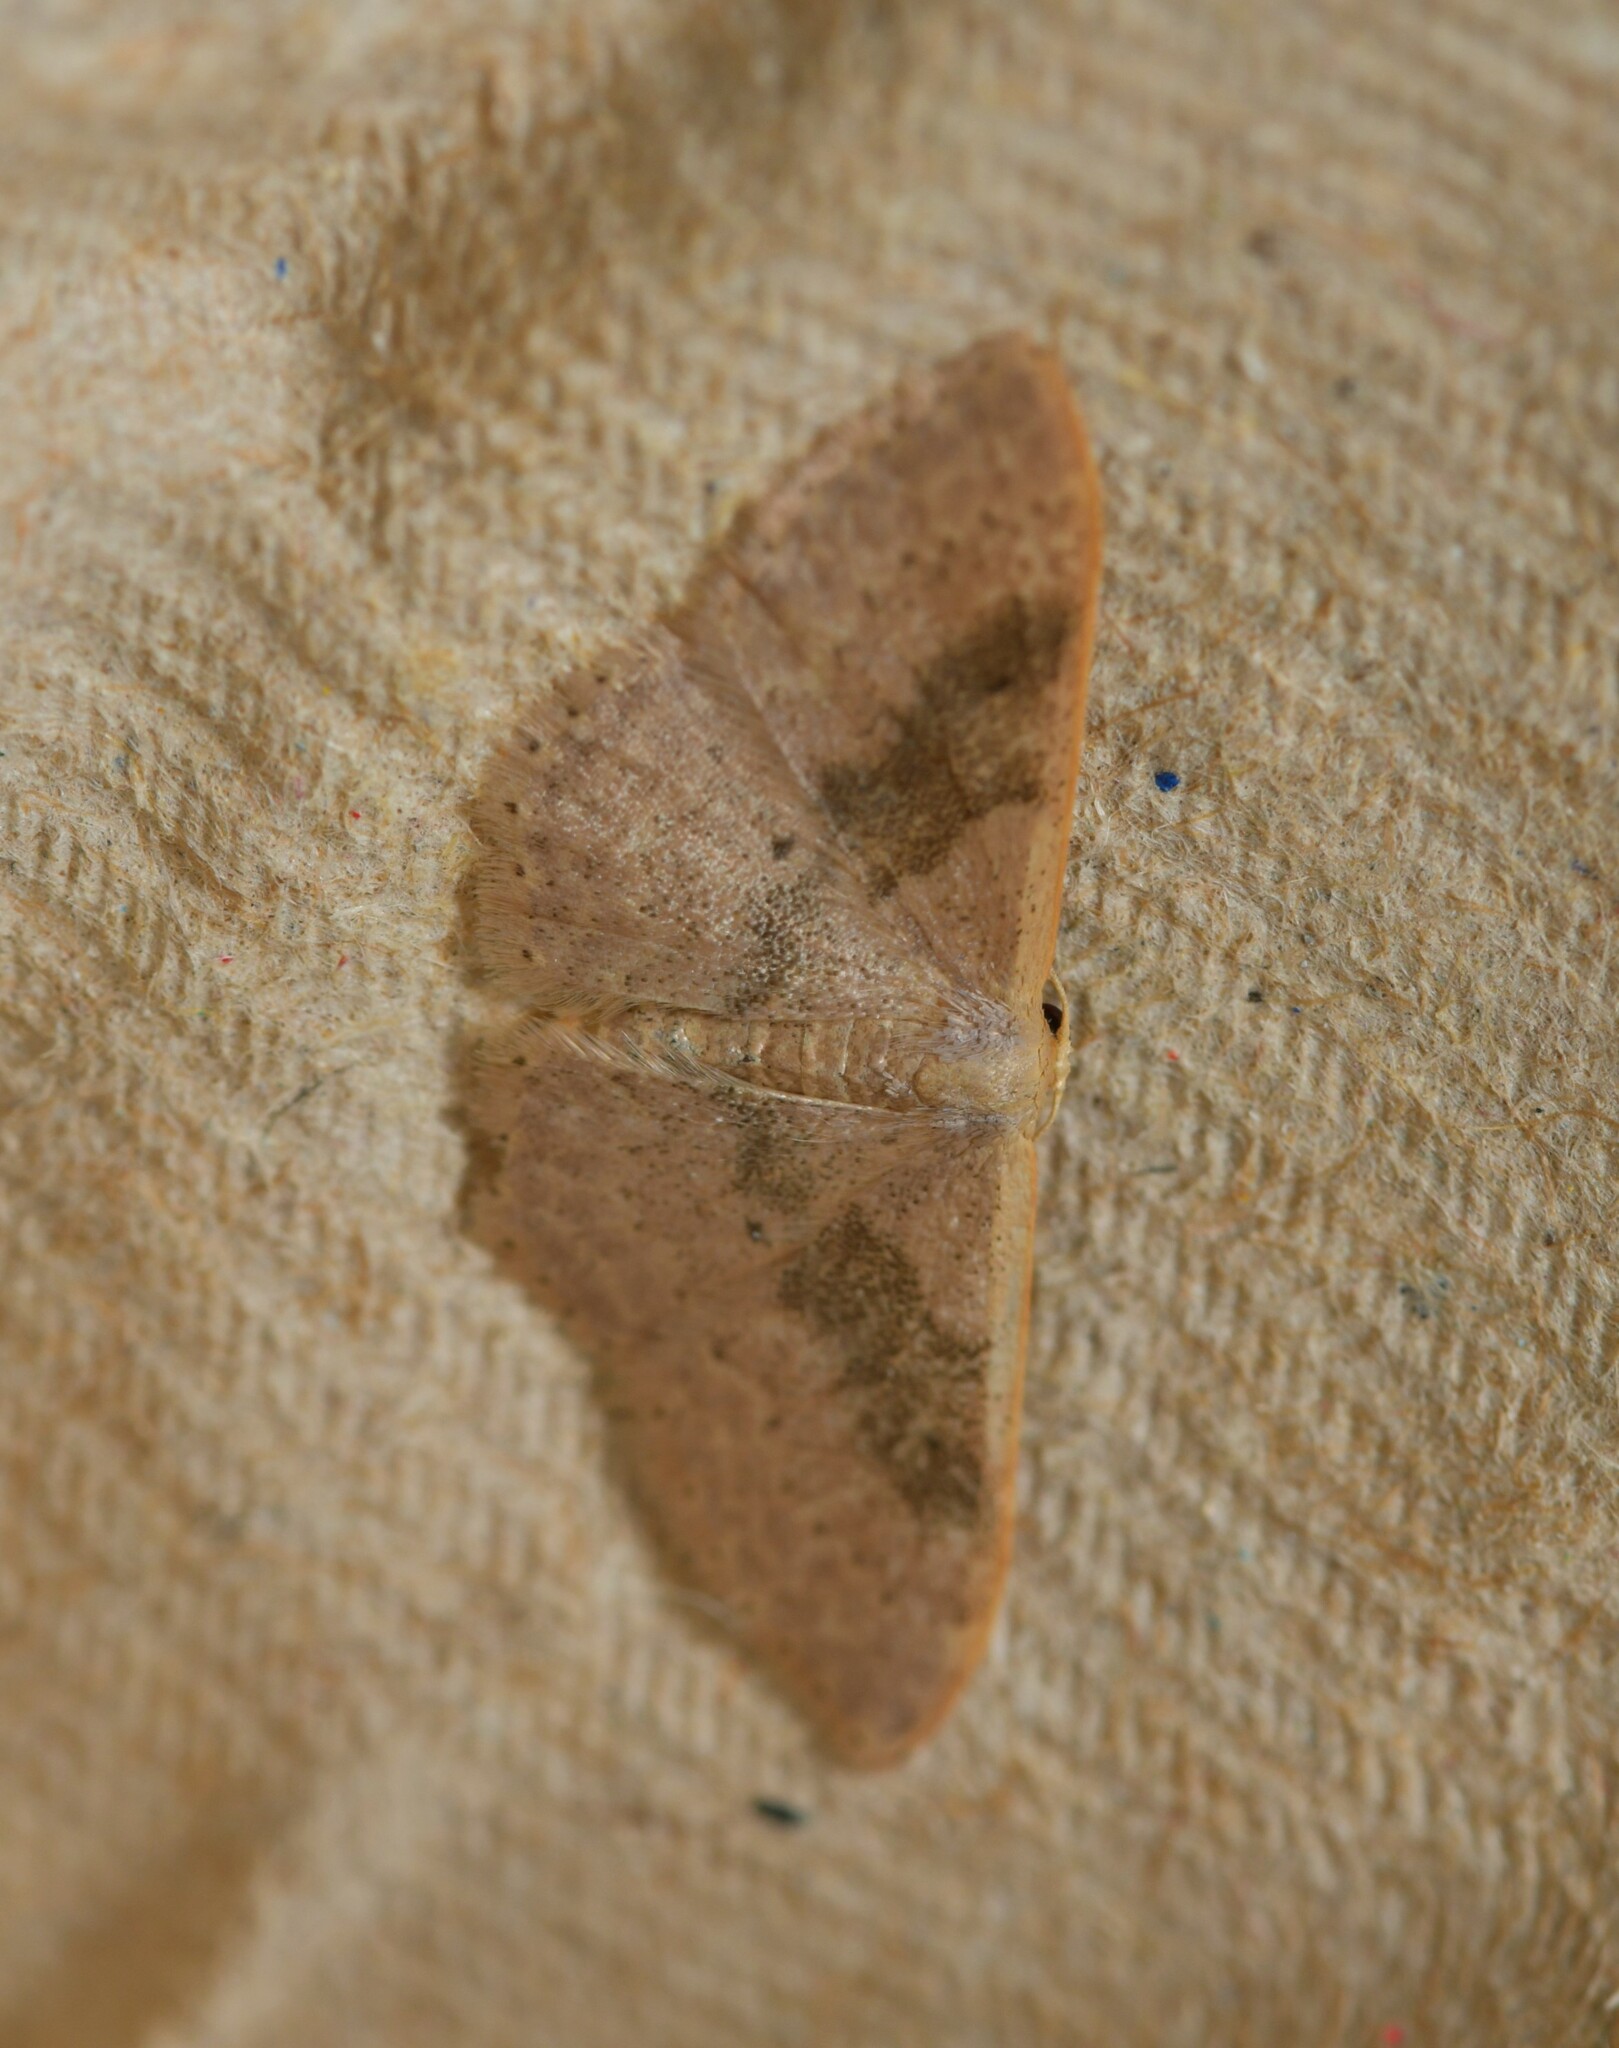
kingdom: Animalia
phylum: Arthropoda
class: Insecta
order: Lepidoptera
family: Geometridae
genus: Idaea
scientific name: Idaea eugeniata
